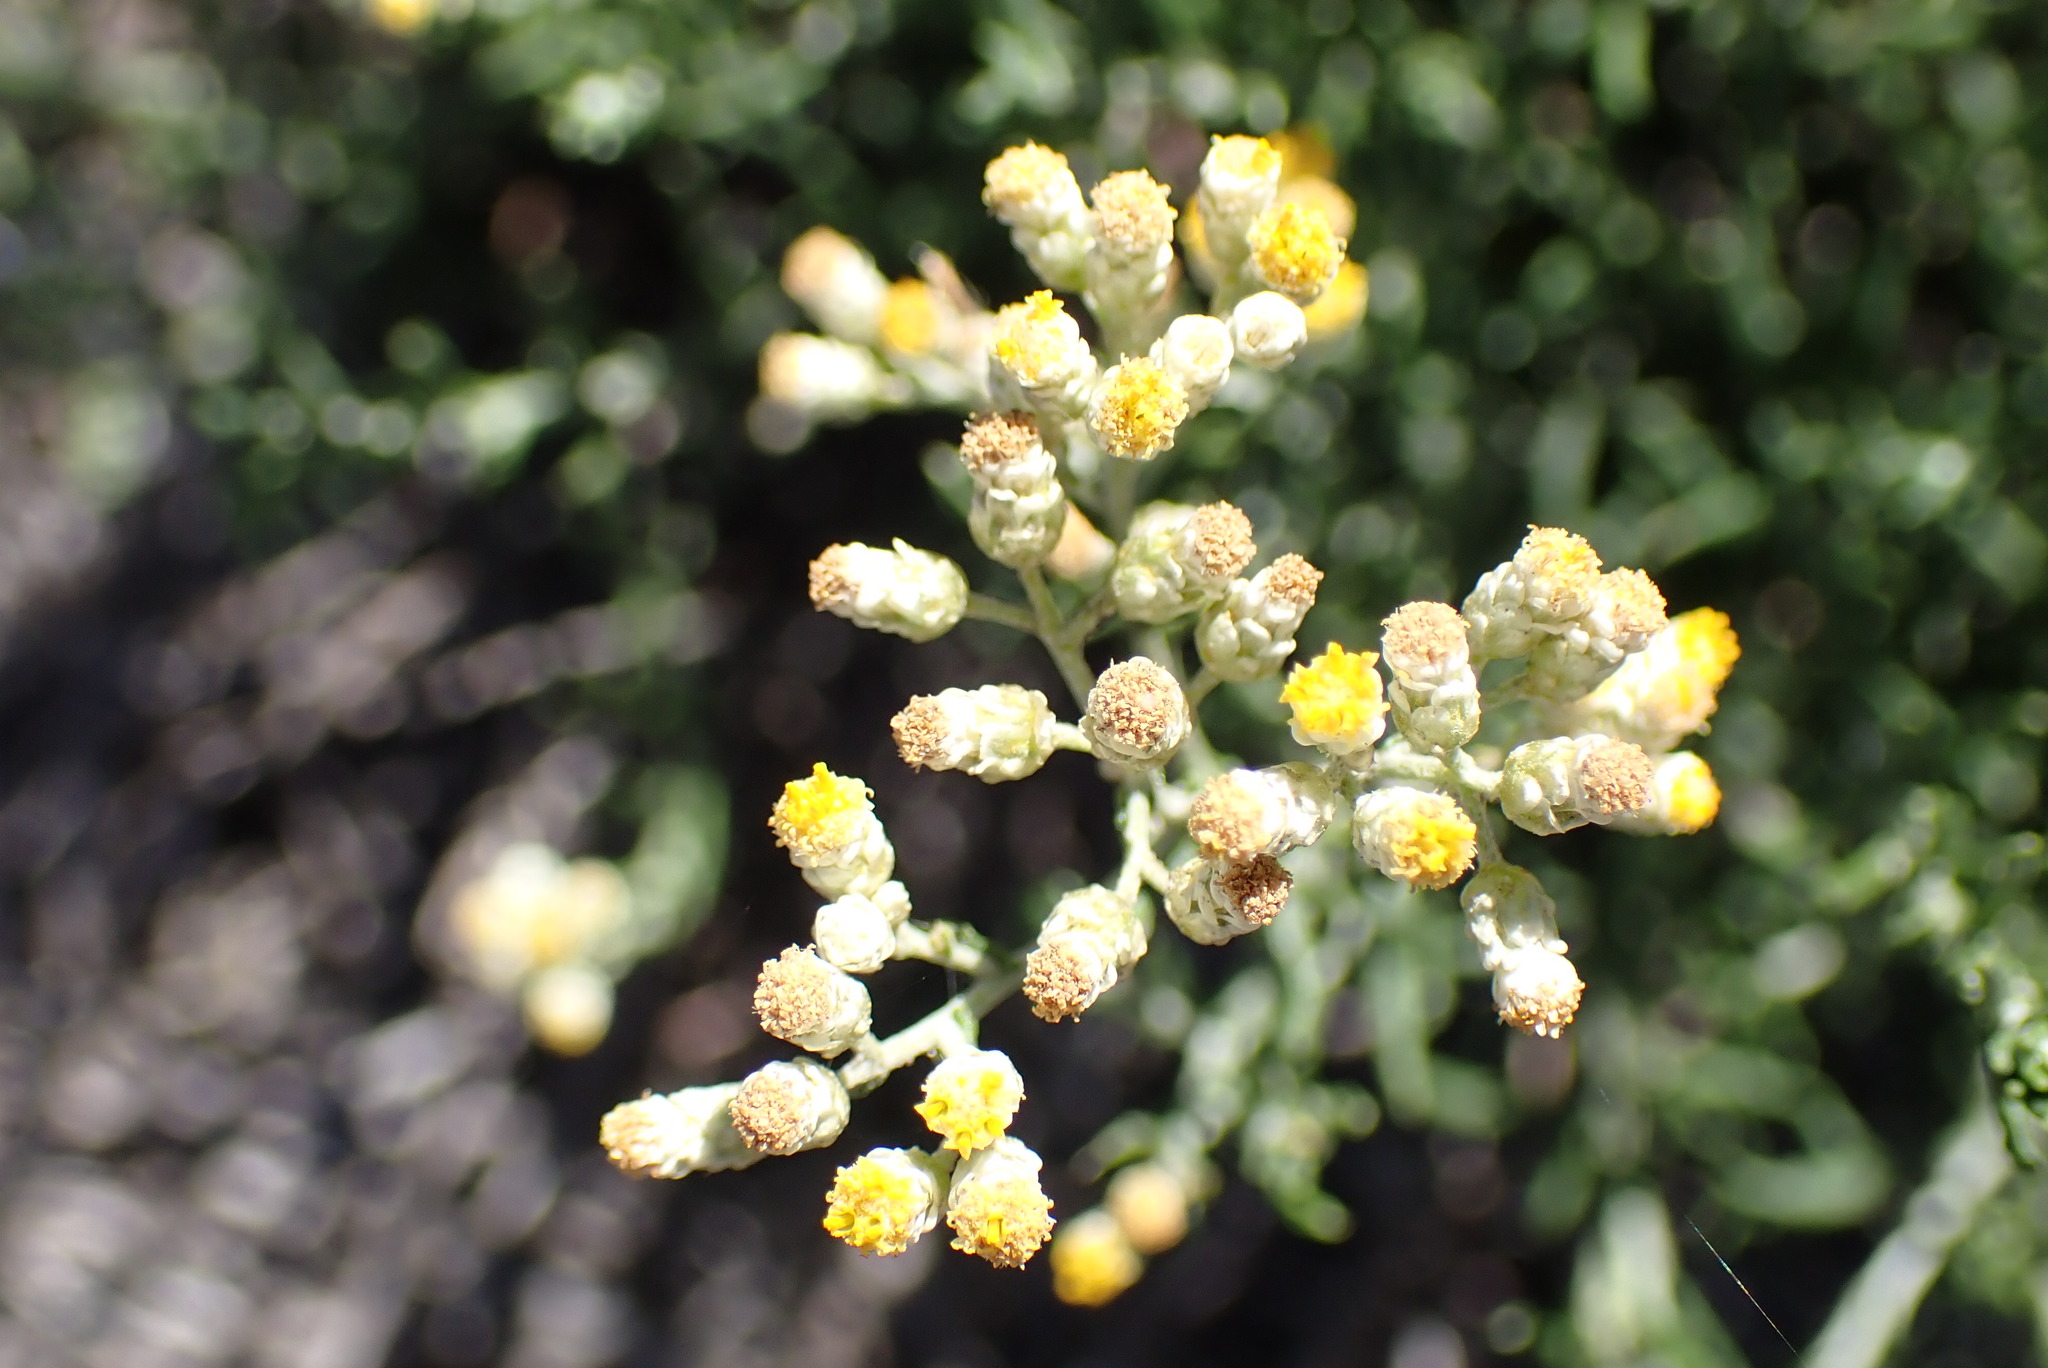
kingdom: Plantae
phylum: Tracheophyta
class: Magnoliopsida
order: Asterales
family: Asteraceae
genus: Helichrysum
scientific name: Helichrysum rosum
